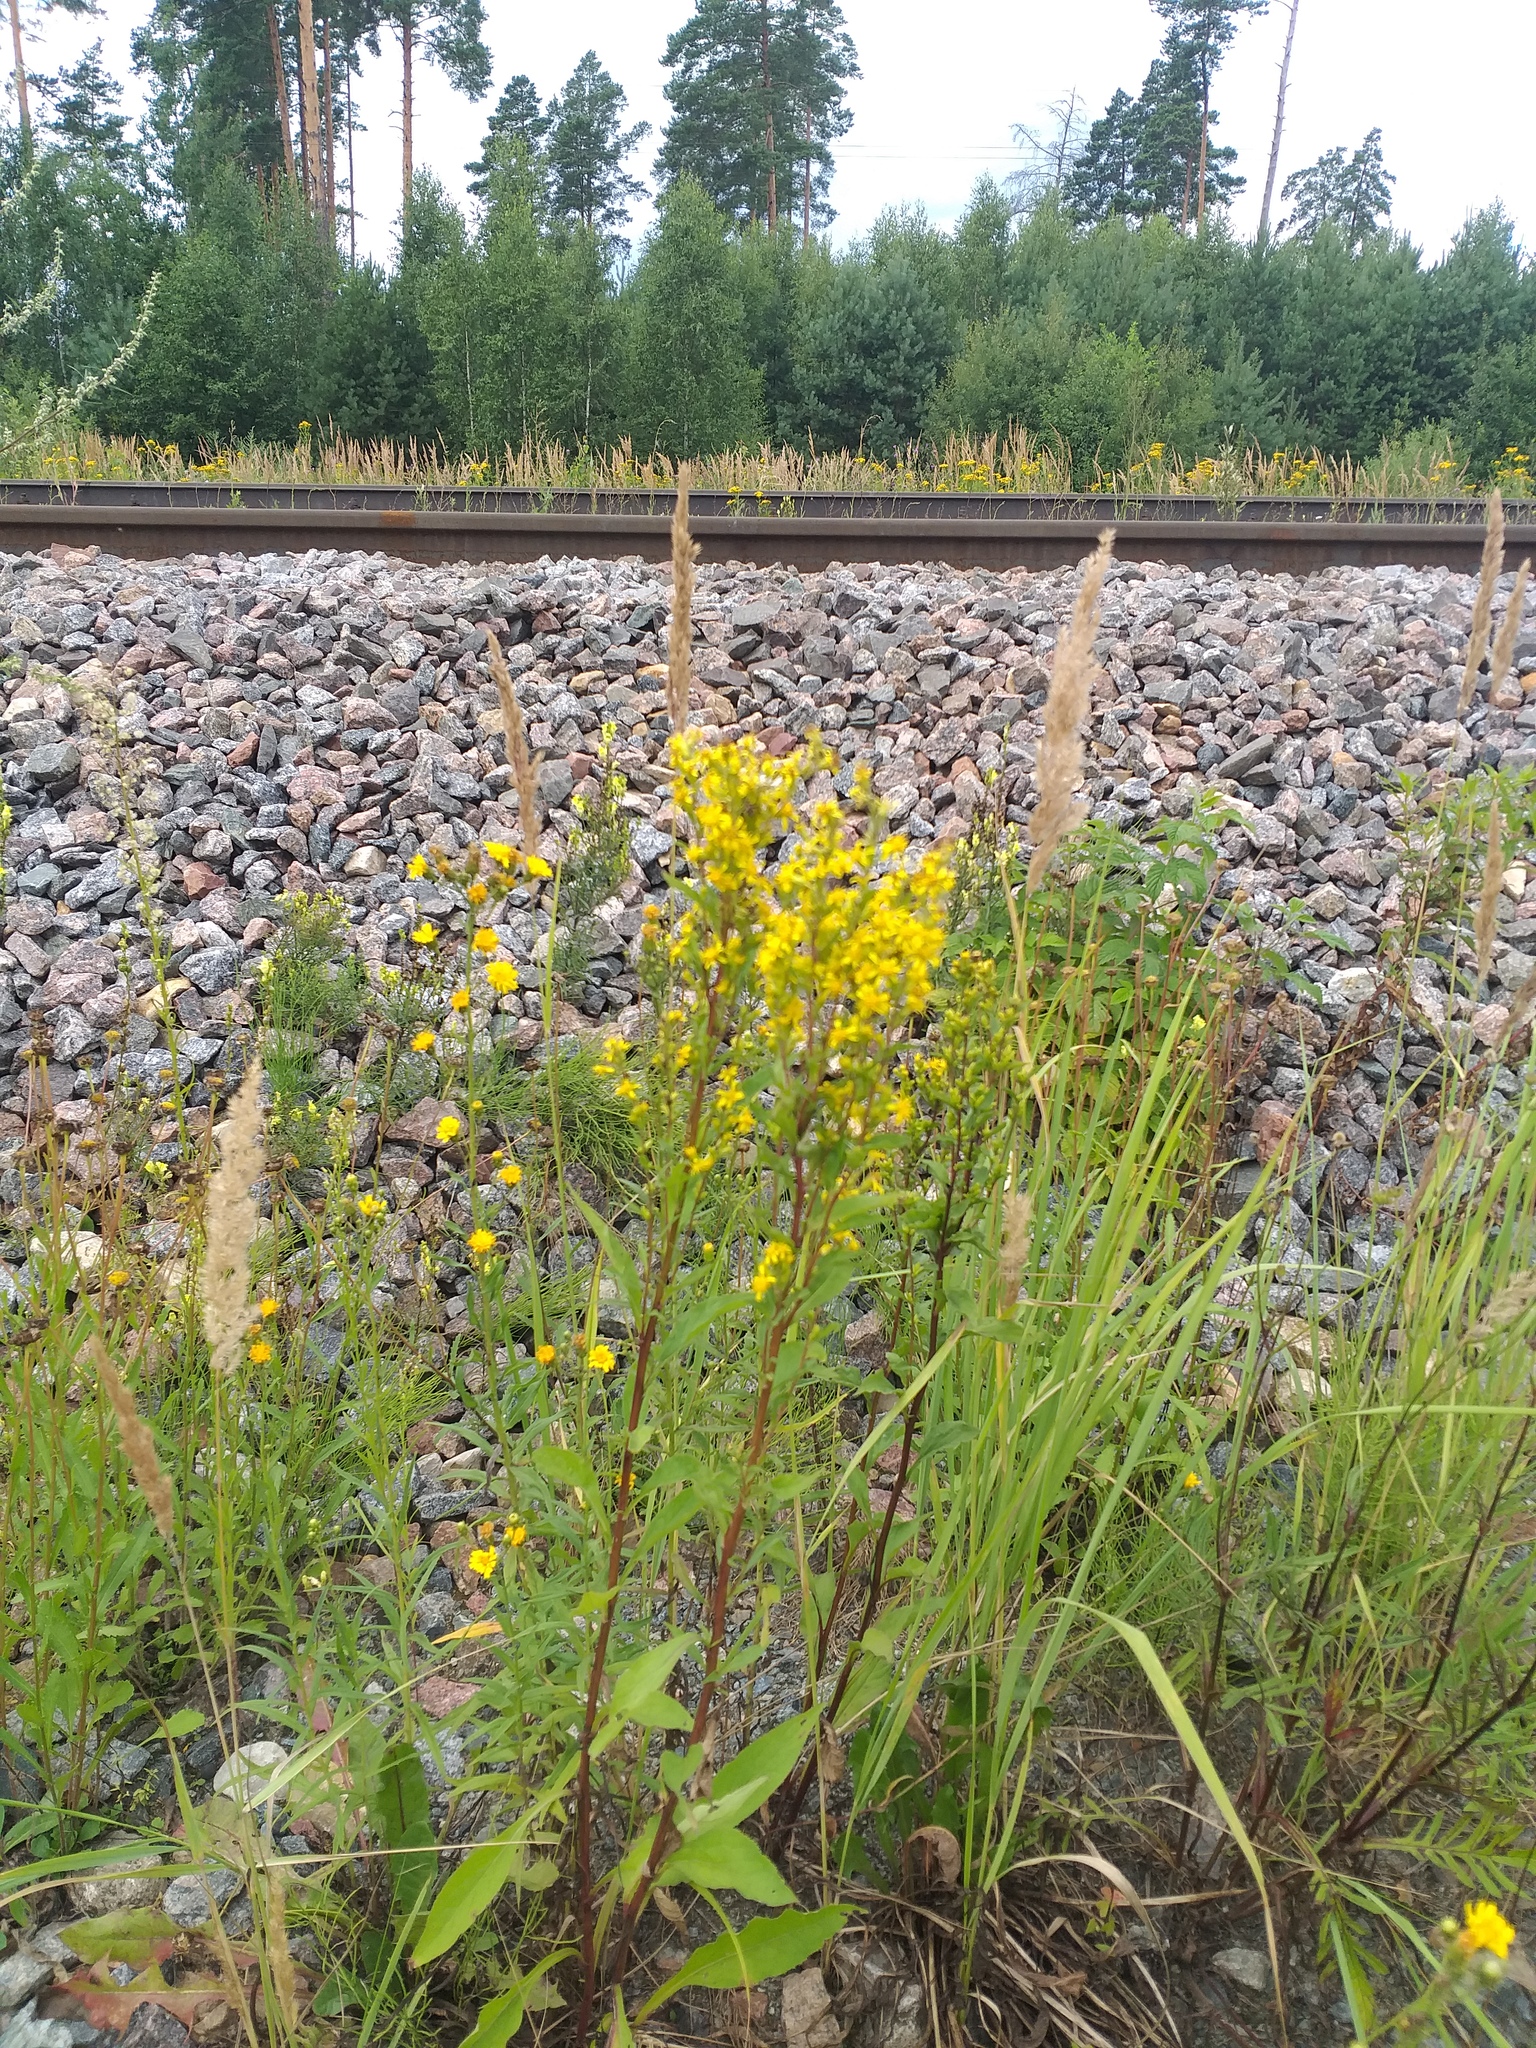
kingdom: Plantae
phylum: Tracheophyta
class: Magnoliopsida
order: Asterales
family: Asteraceae
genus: Solidago
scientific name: Solidago virgaurea
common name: Goldenrod
